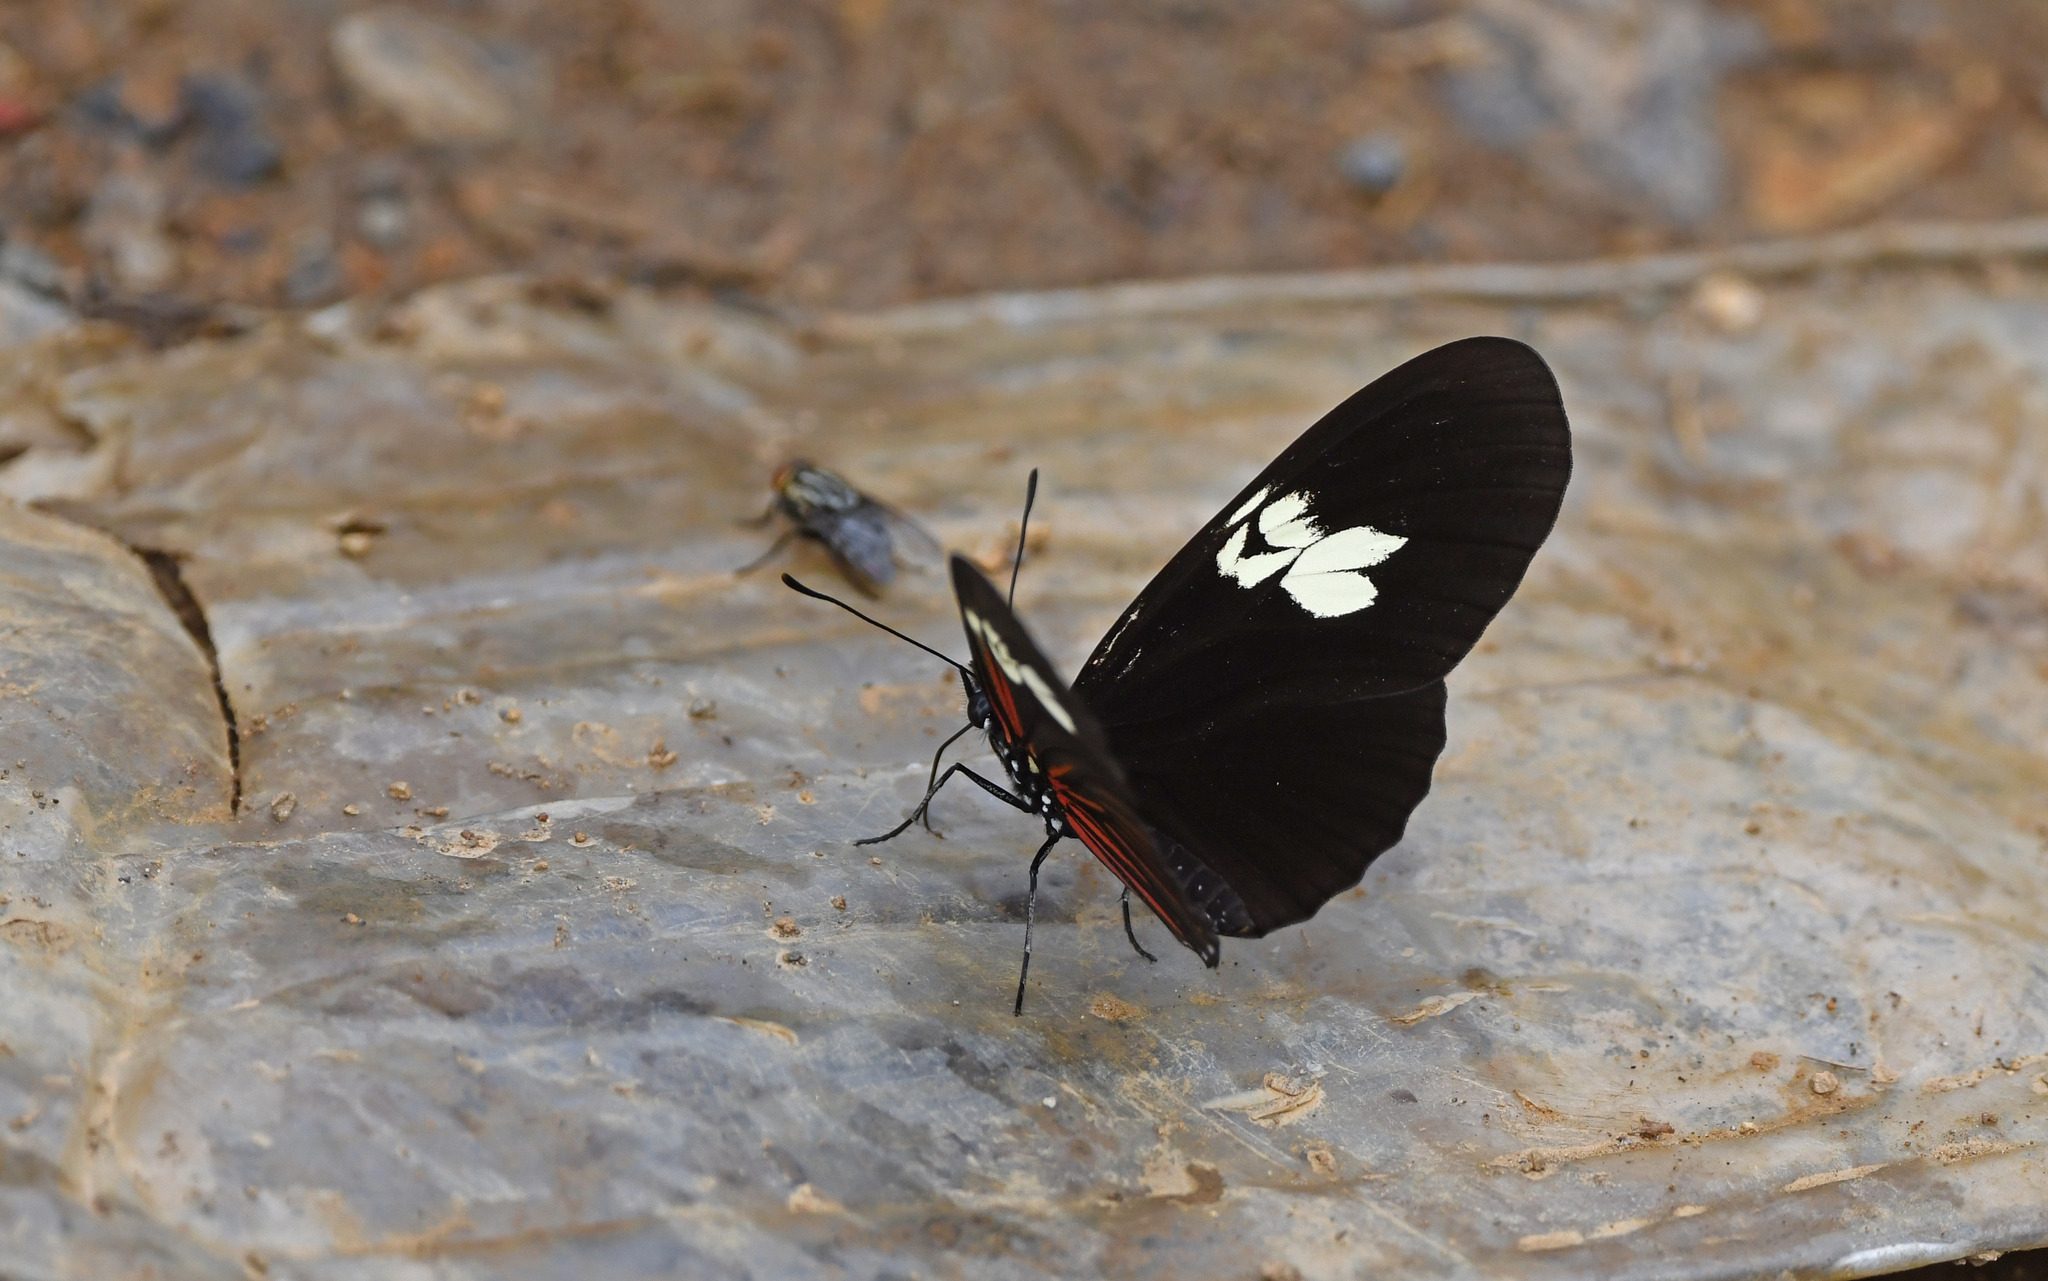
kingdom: Animalia
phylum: Arthropoda
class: Insecta
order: Lepidoptera
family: Nymphalidae
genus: Eueides
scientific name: Eueides heliconioides
